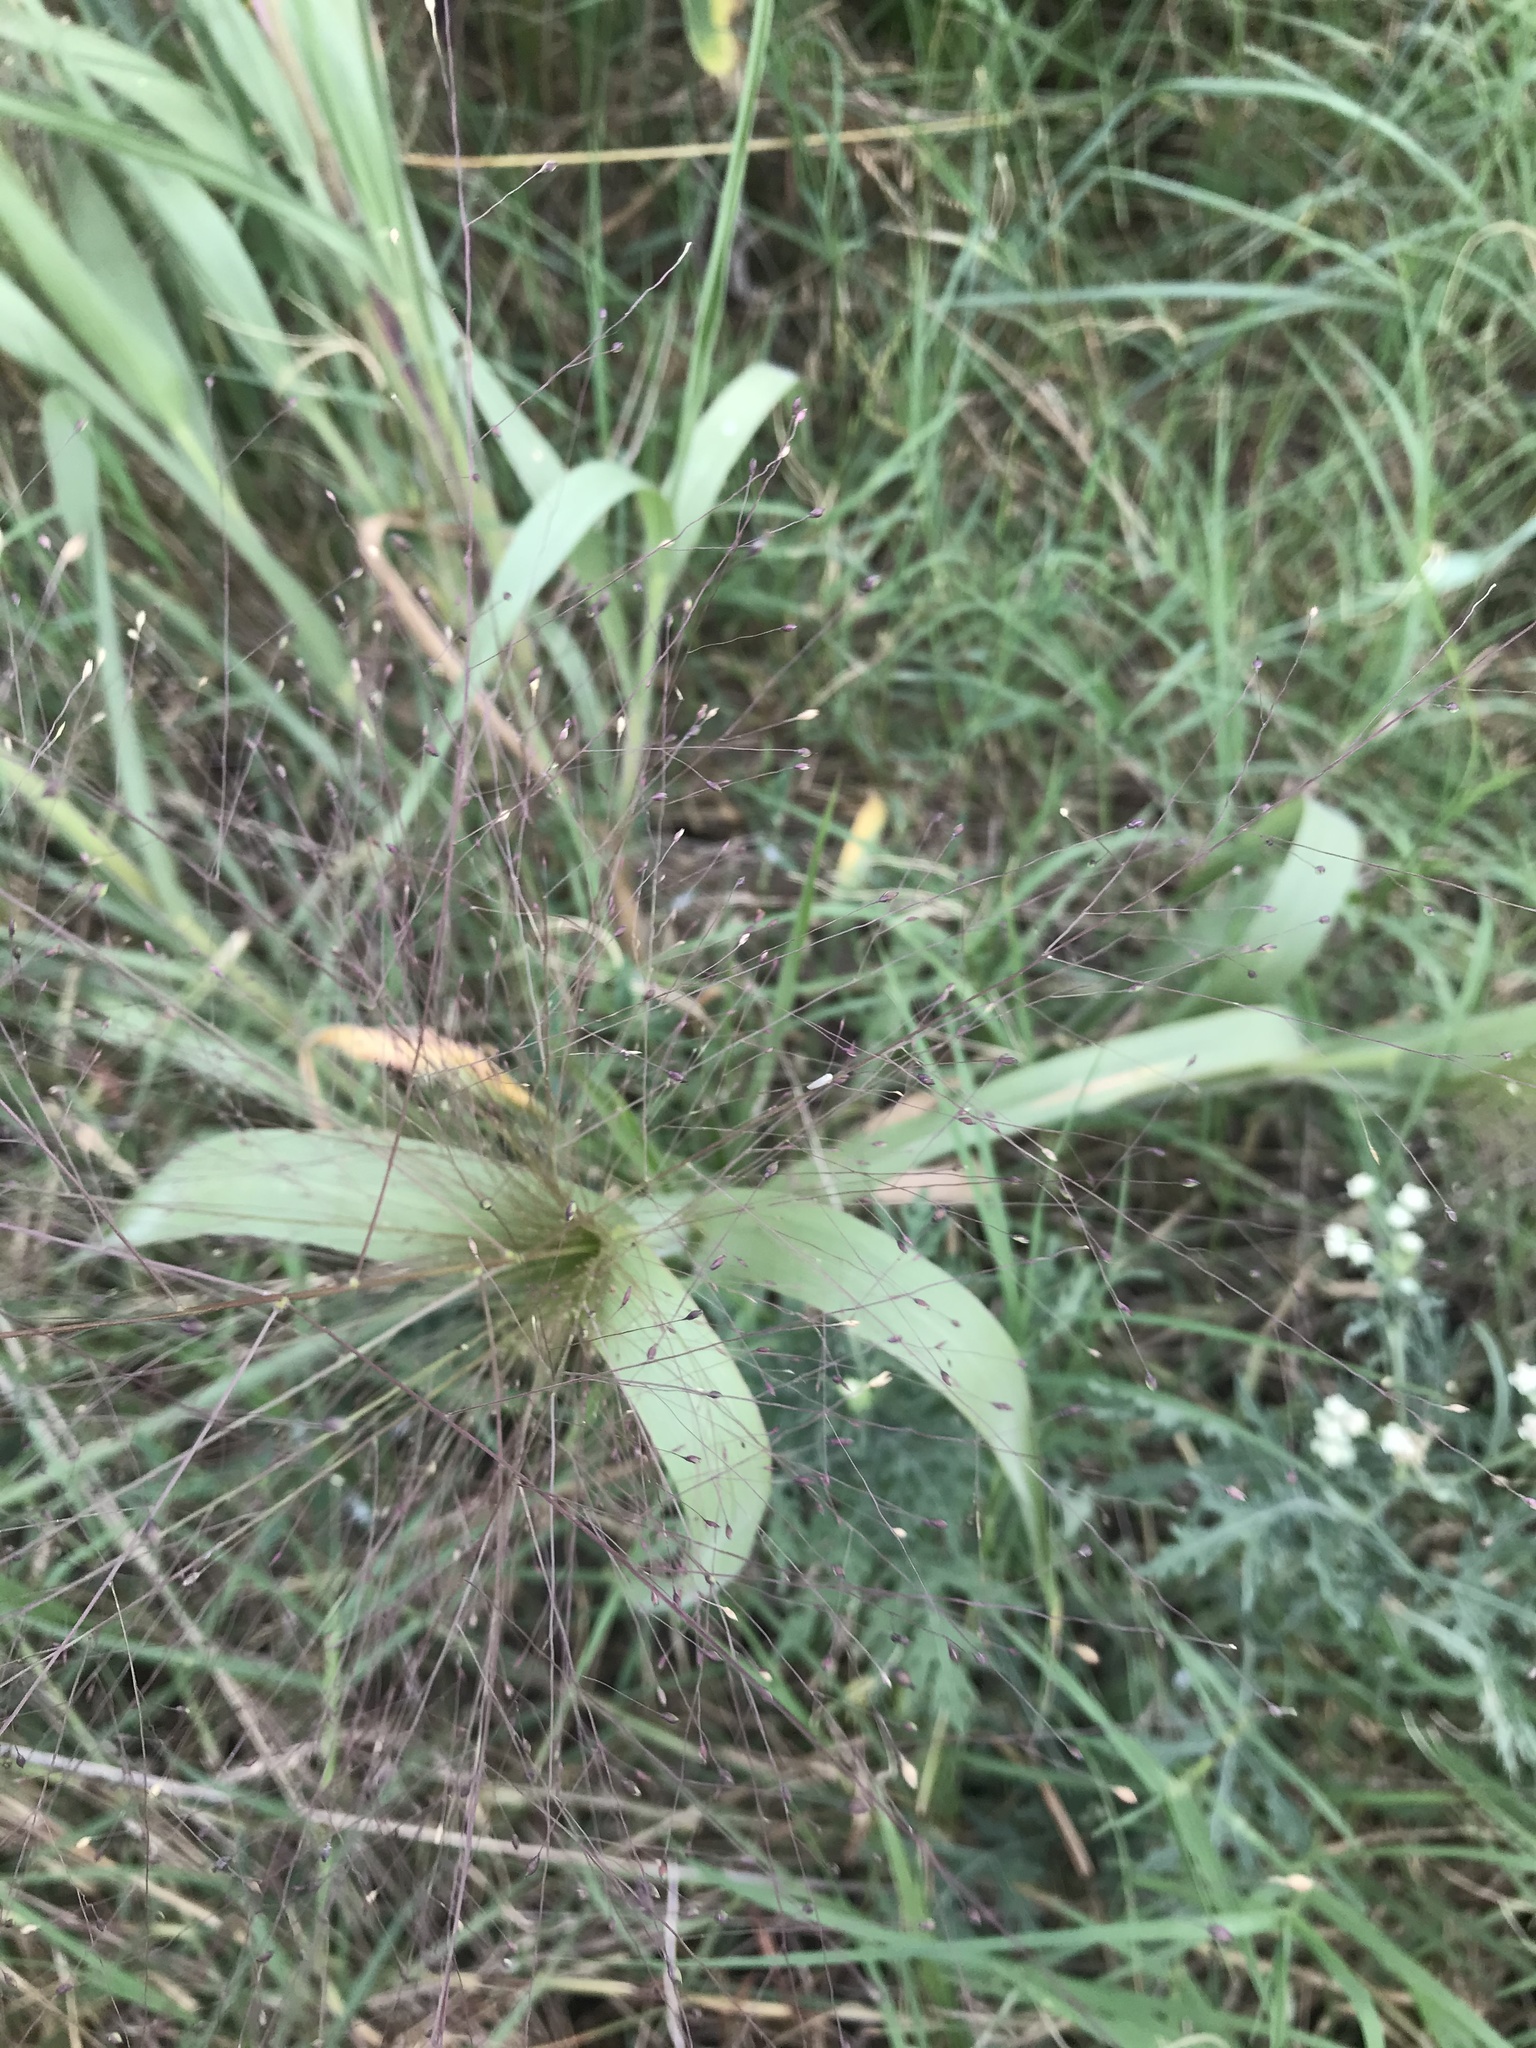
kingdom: Plantae
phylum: Tracheophyta
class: Liliopsida
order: Poales
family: Poaceae
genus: Panicum
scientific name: Panicum capillare
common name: Witch-grass
